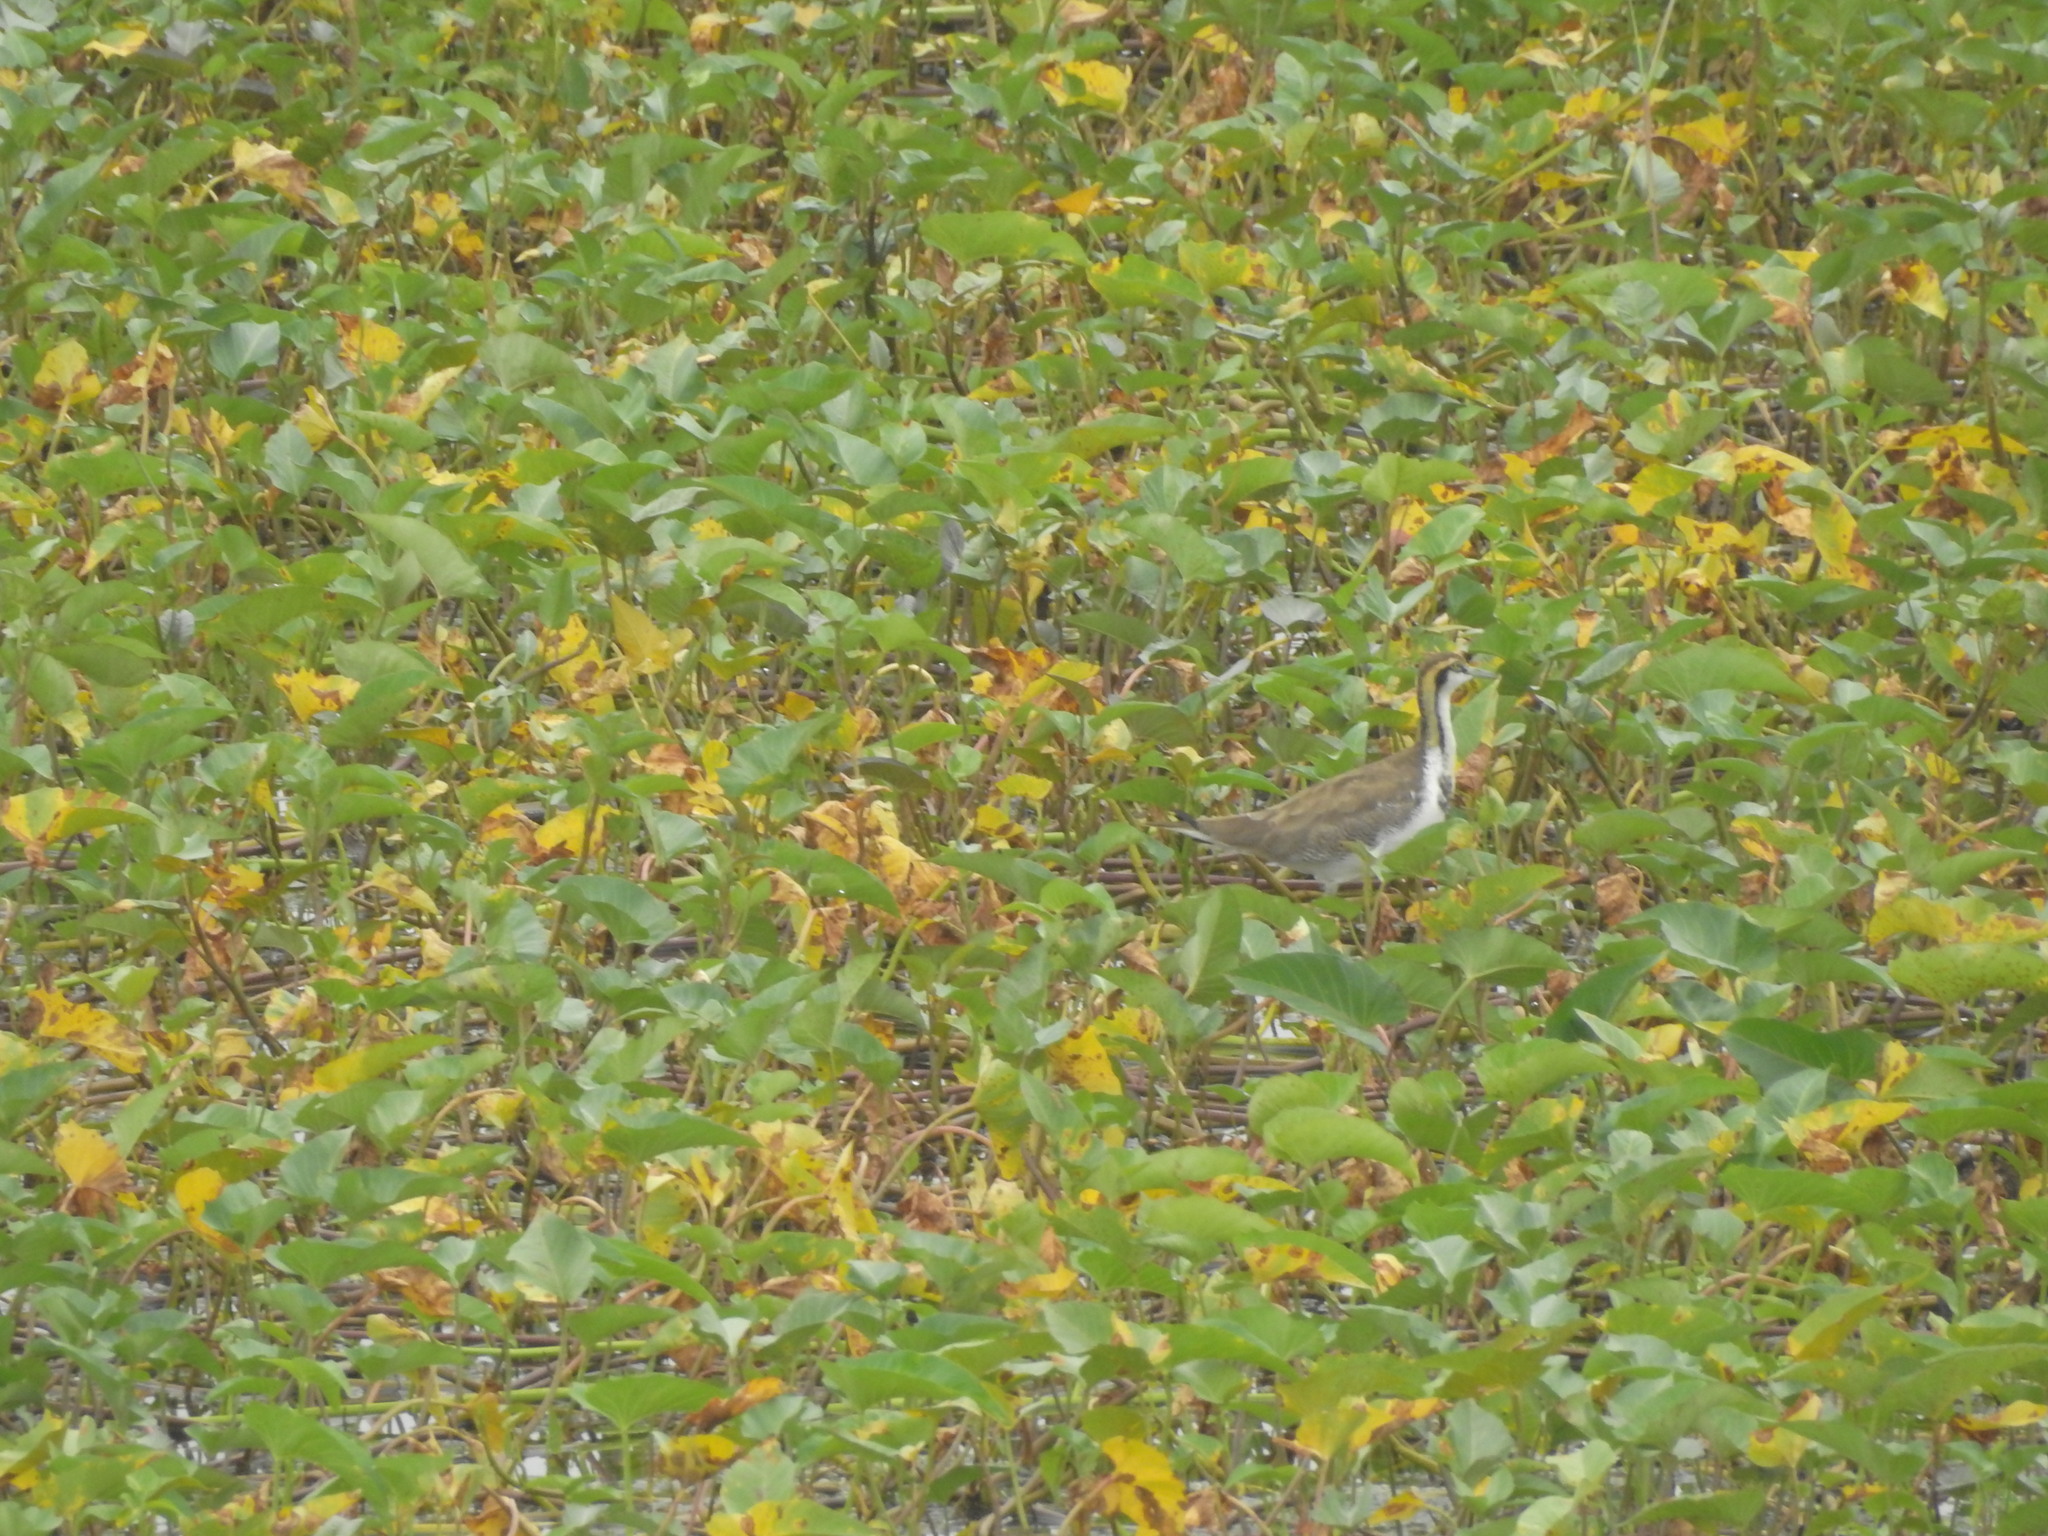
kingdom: Animalia
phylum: Chordata
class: Aves
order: Charadriiformes
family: Jacanidae
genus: Hydrophasianus
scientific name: Hydrophasianus chirurgus
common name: Pheasant-tailed jacana
